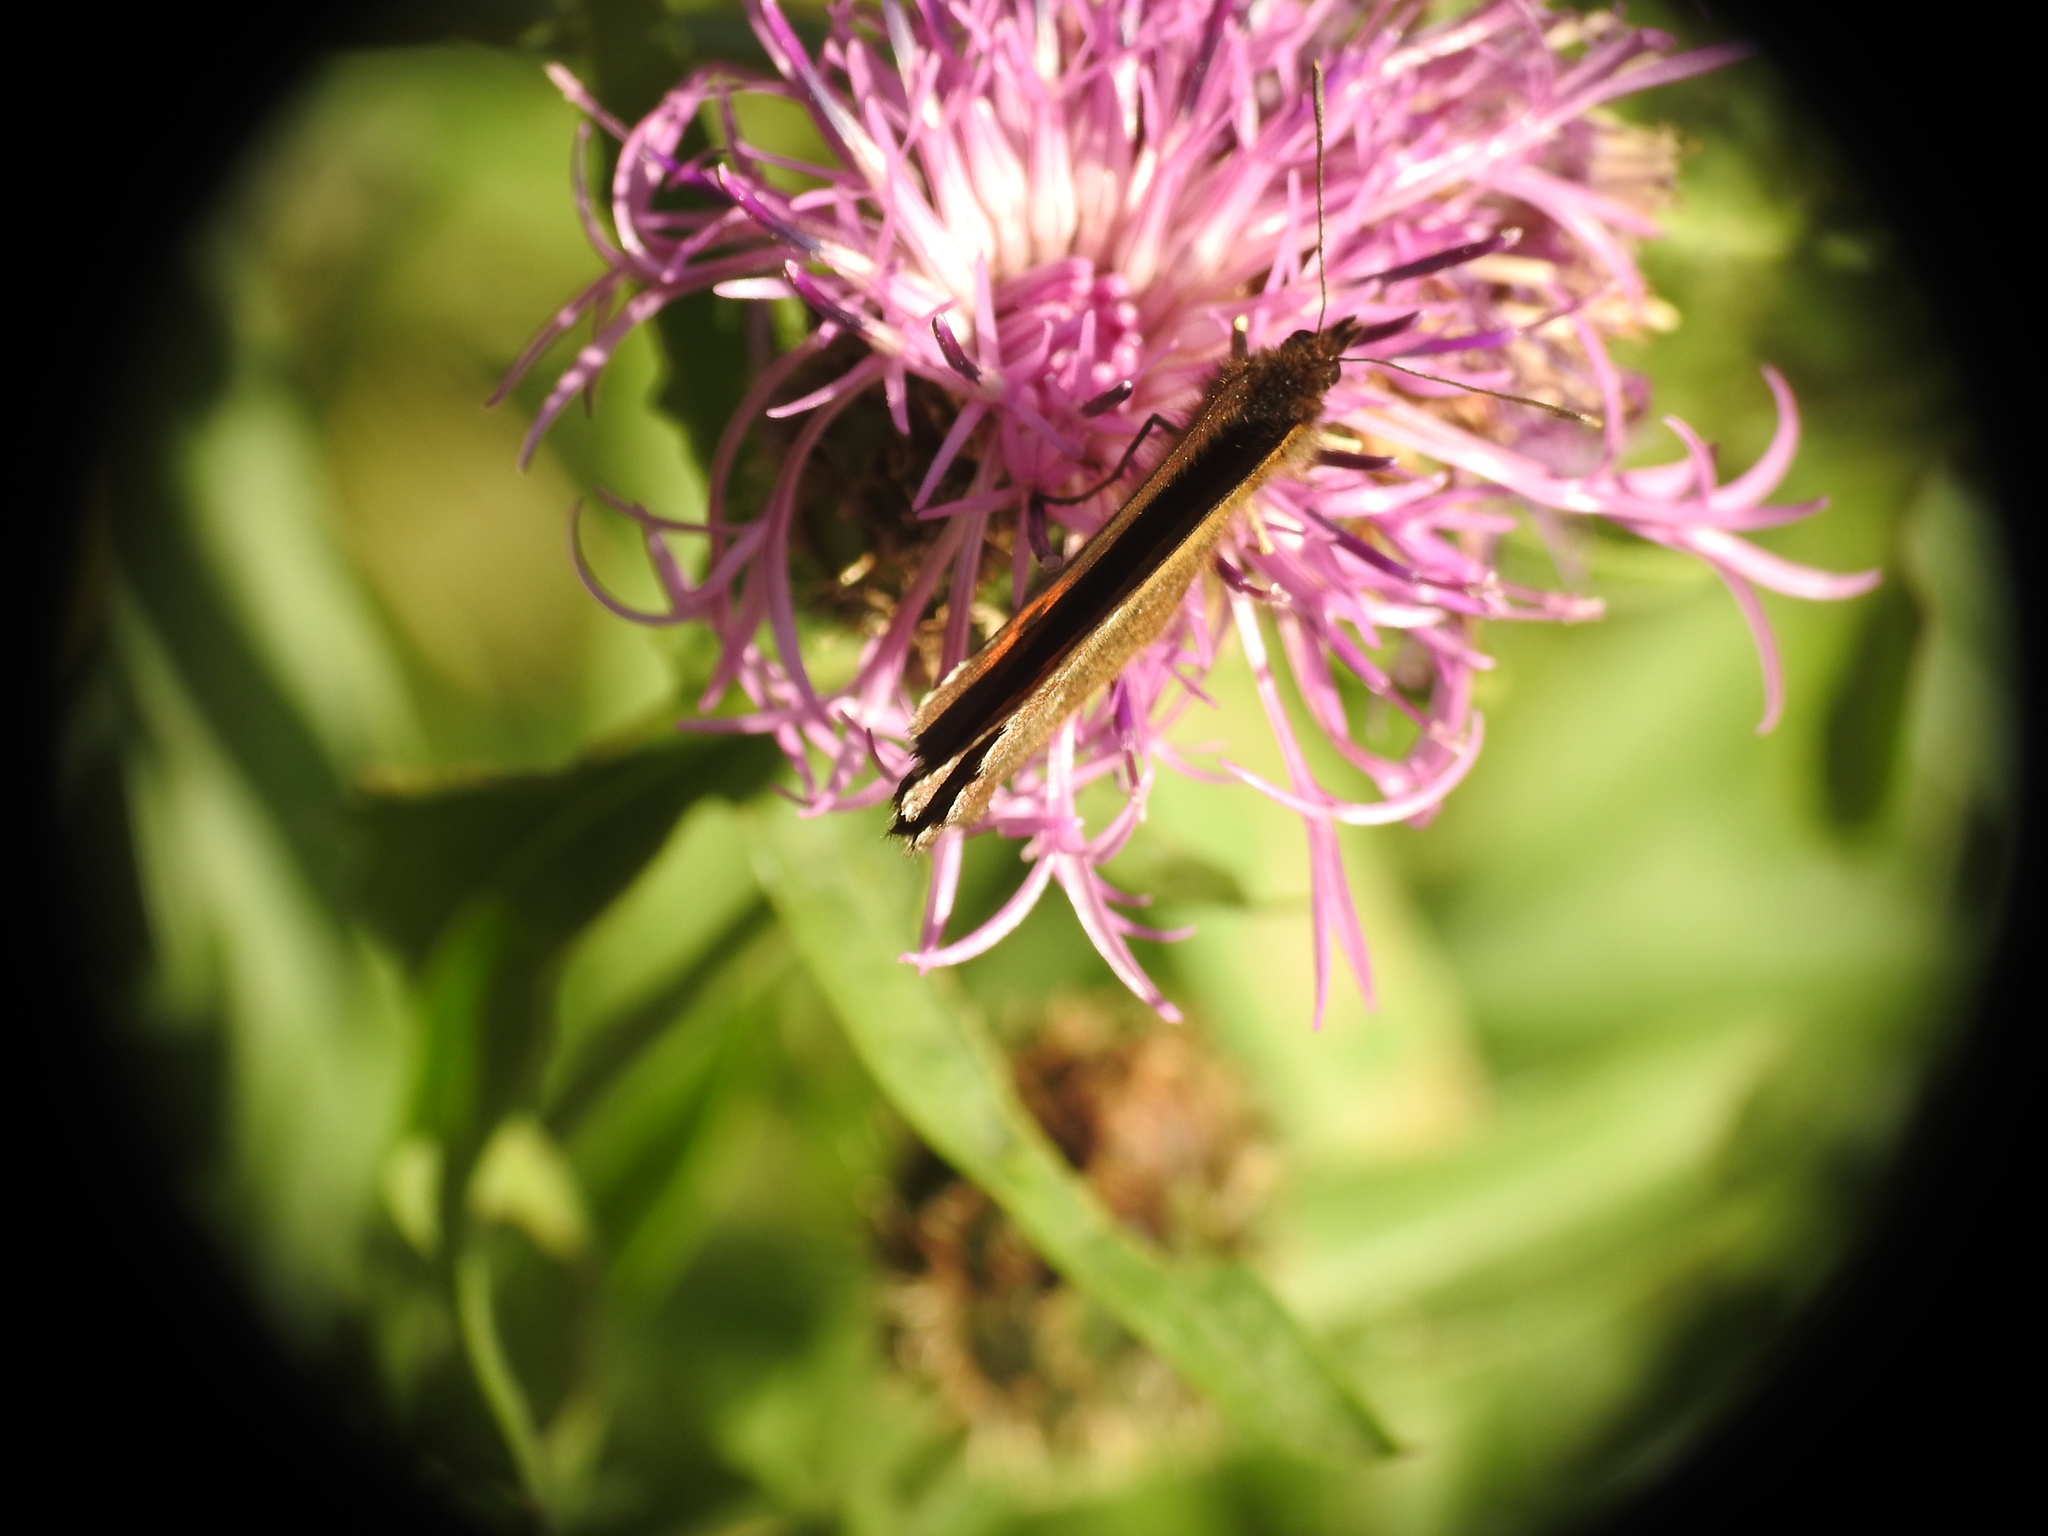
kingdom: Animalia
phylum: Arthropoda
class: Insecta
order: Lepidoptera
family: Nymphalidae
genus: Erebia
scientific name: Erebia euryale
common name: Large ringlet
